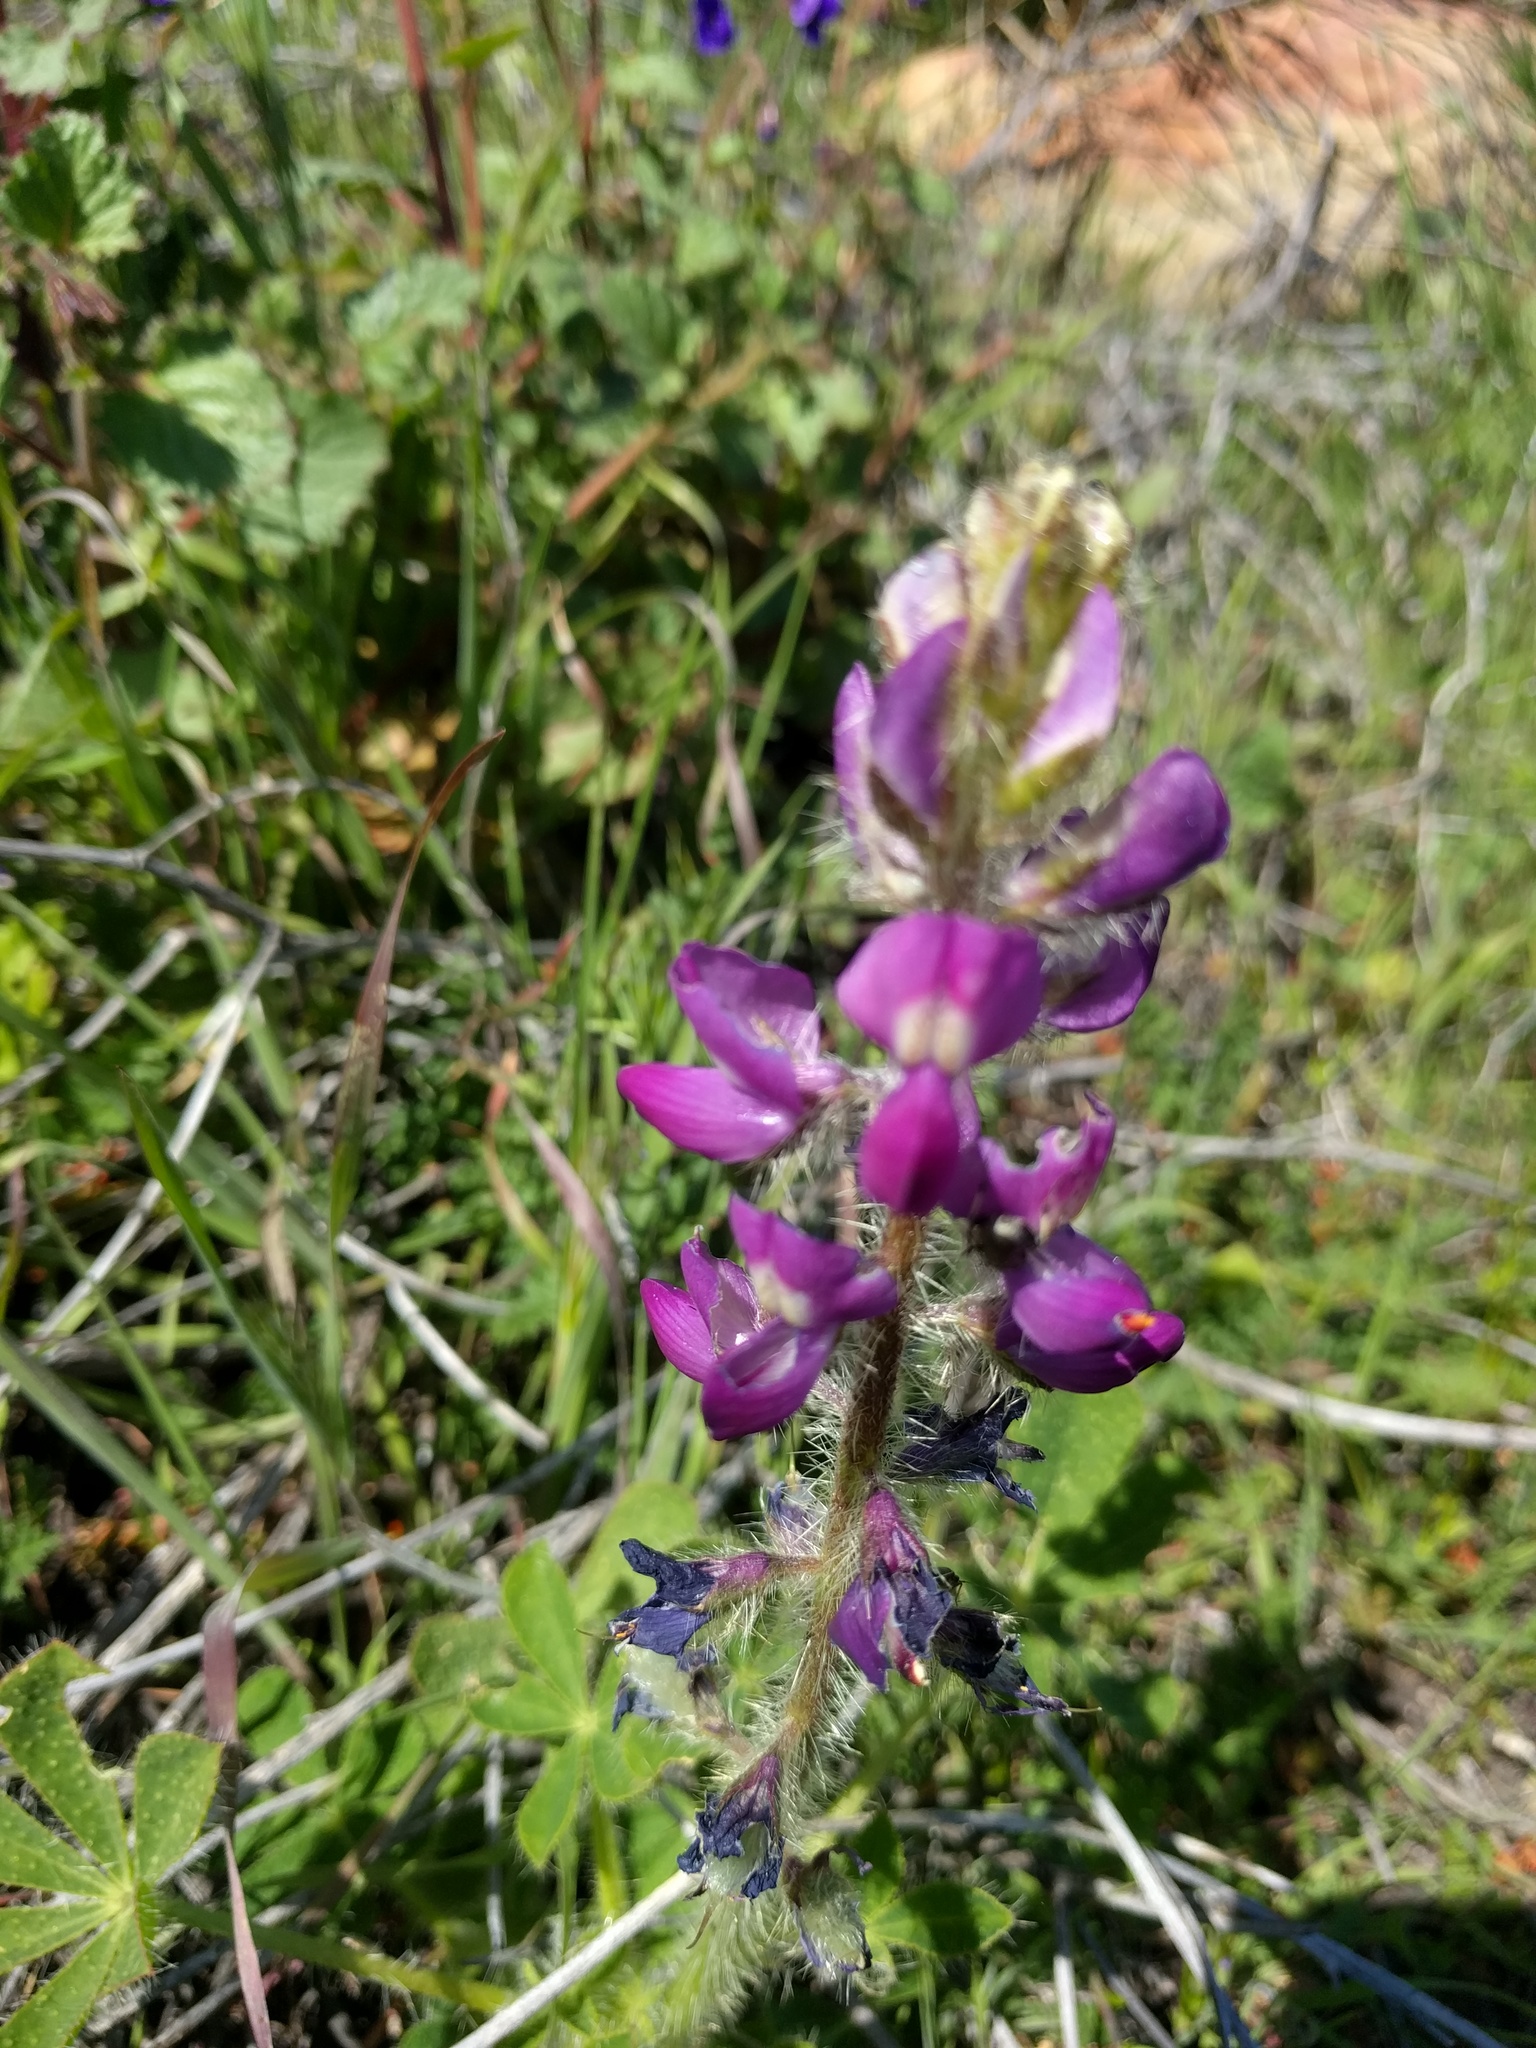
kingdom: Plantae
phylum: Tracheophyta
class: Magnoliopsida
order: Fabales
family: Fabaceae
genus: Lupinus
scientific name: Lupinus hirsutissimus
